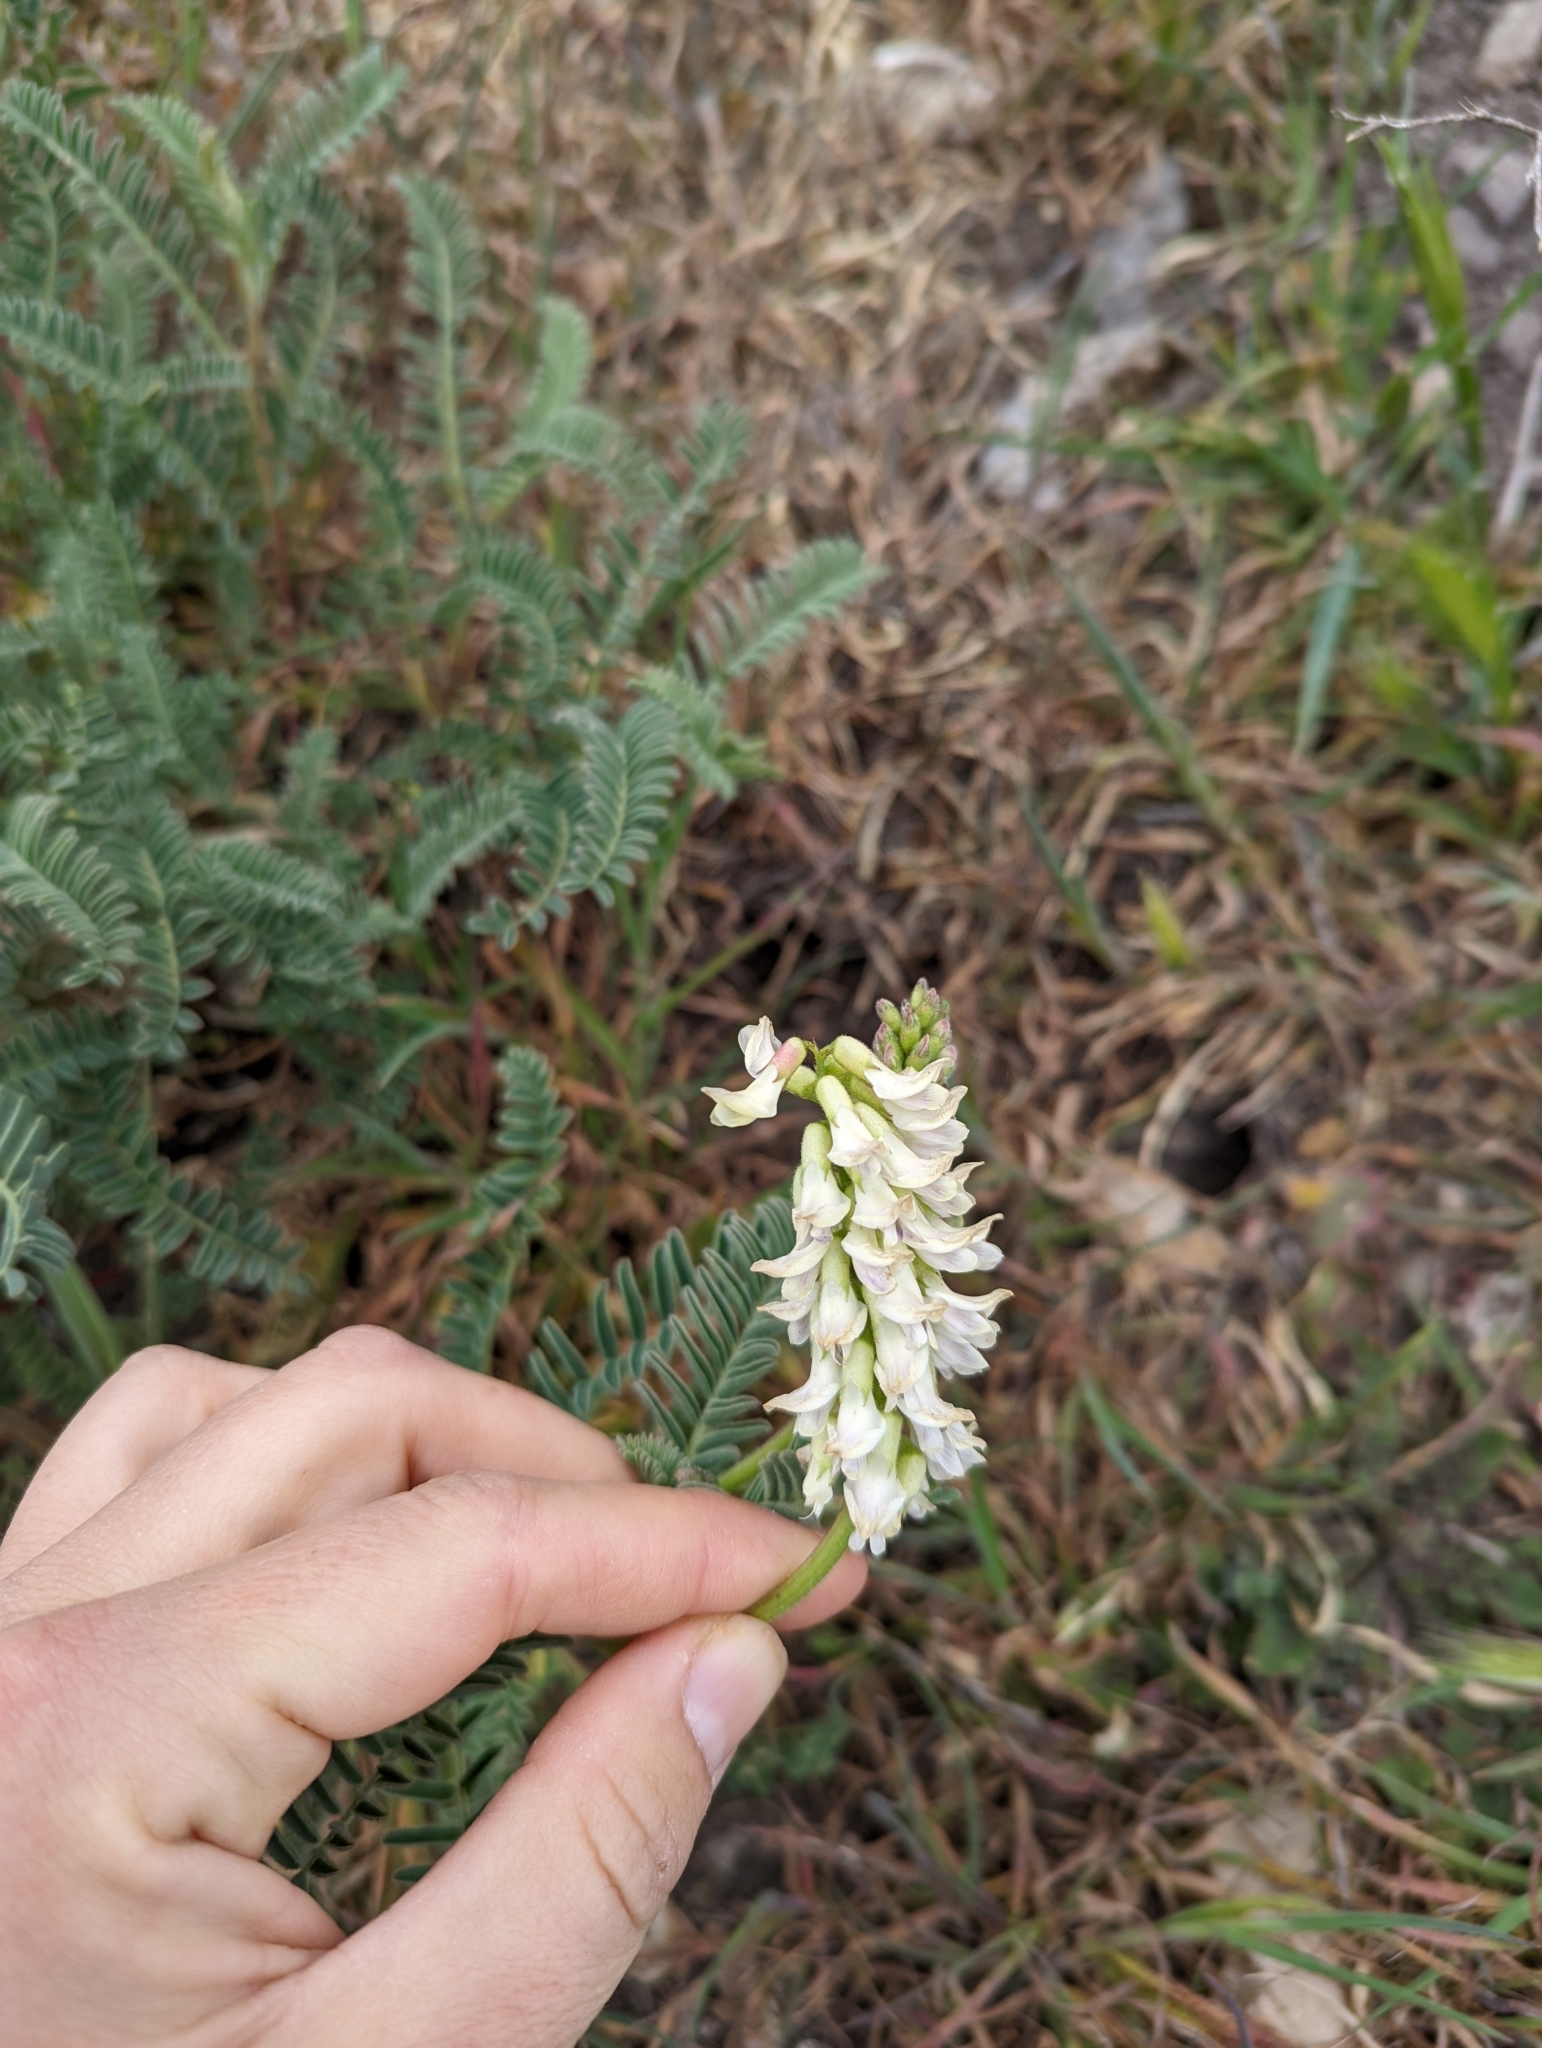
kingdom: Plantae
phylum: Tracheophyta
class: Magnoliopsida
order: Fabales
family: Fabaceae
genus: Astragalus
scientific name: Astragalus nuttallii
